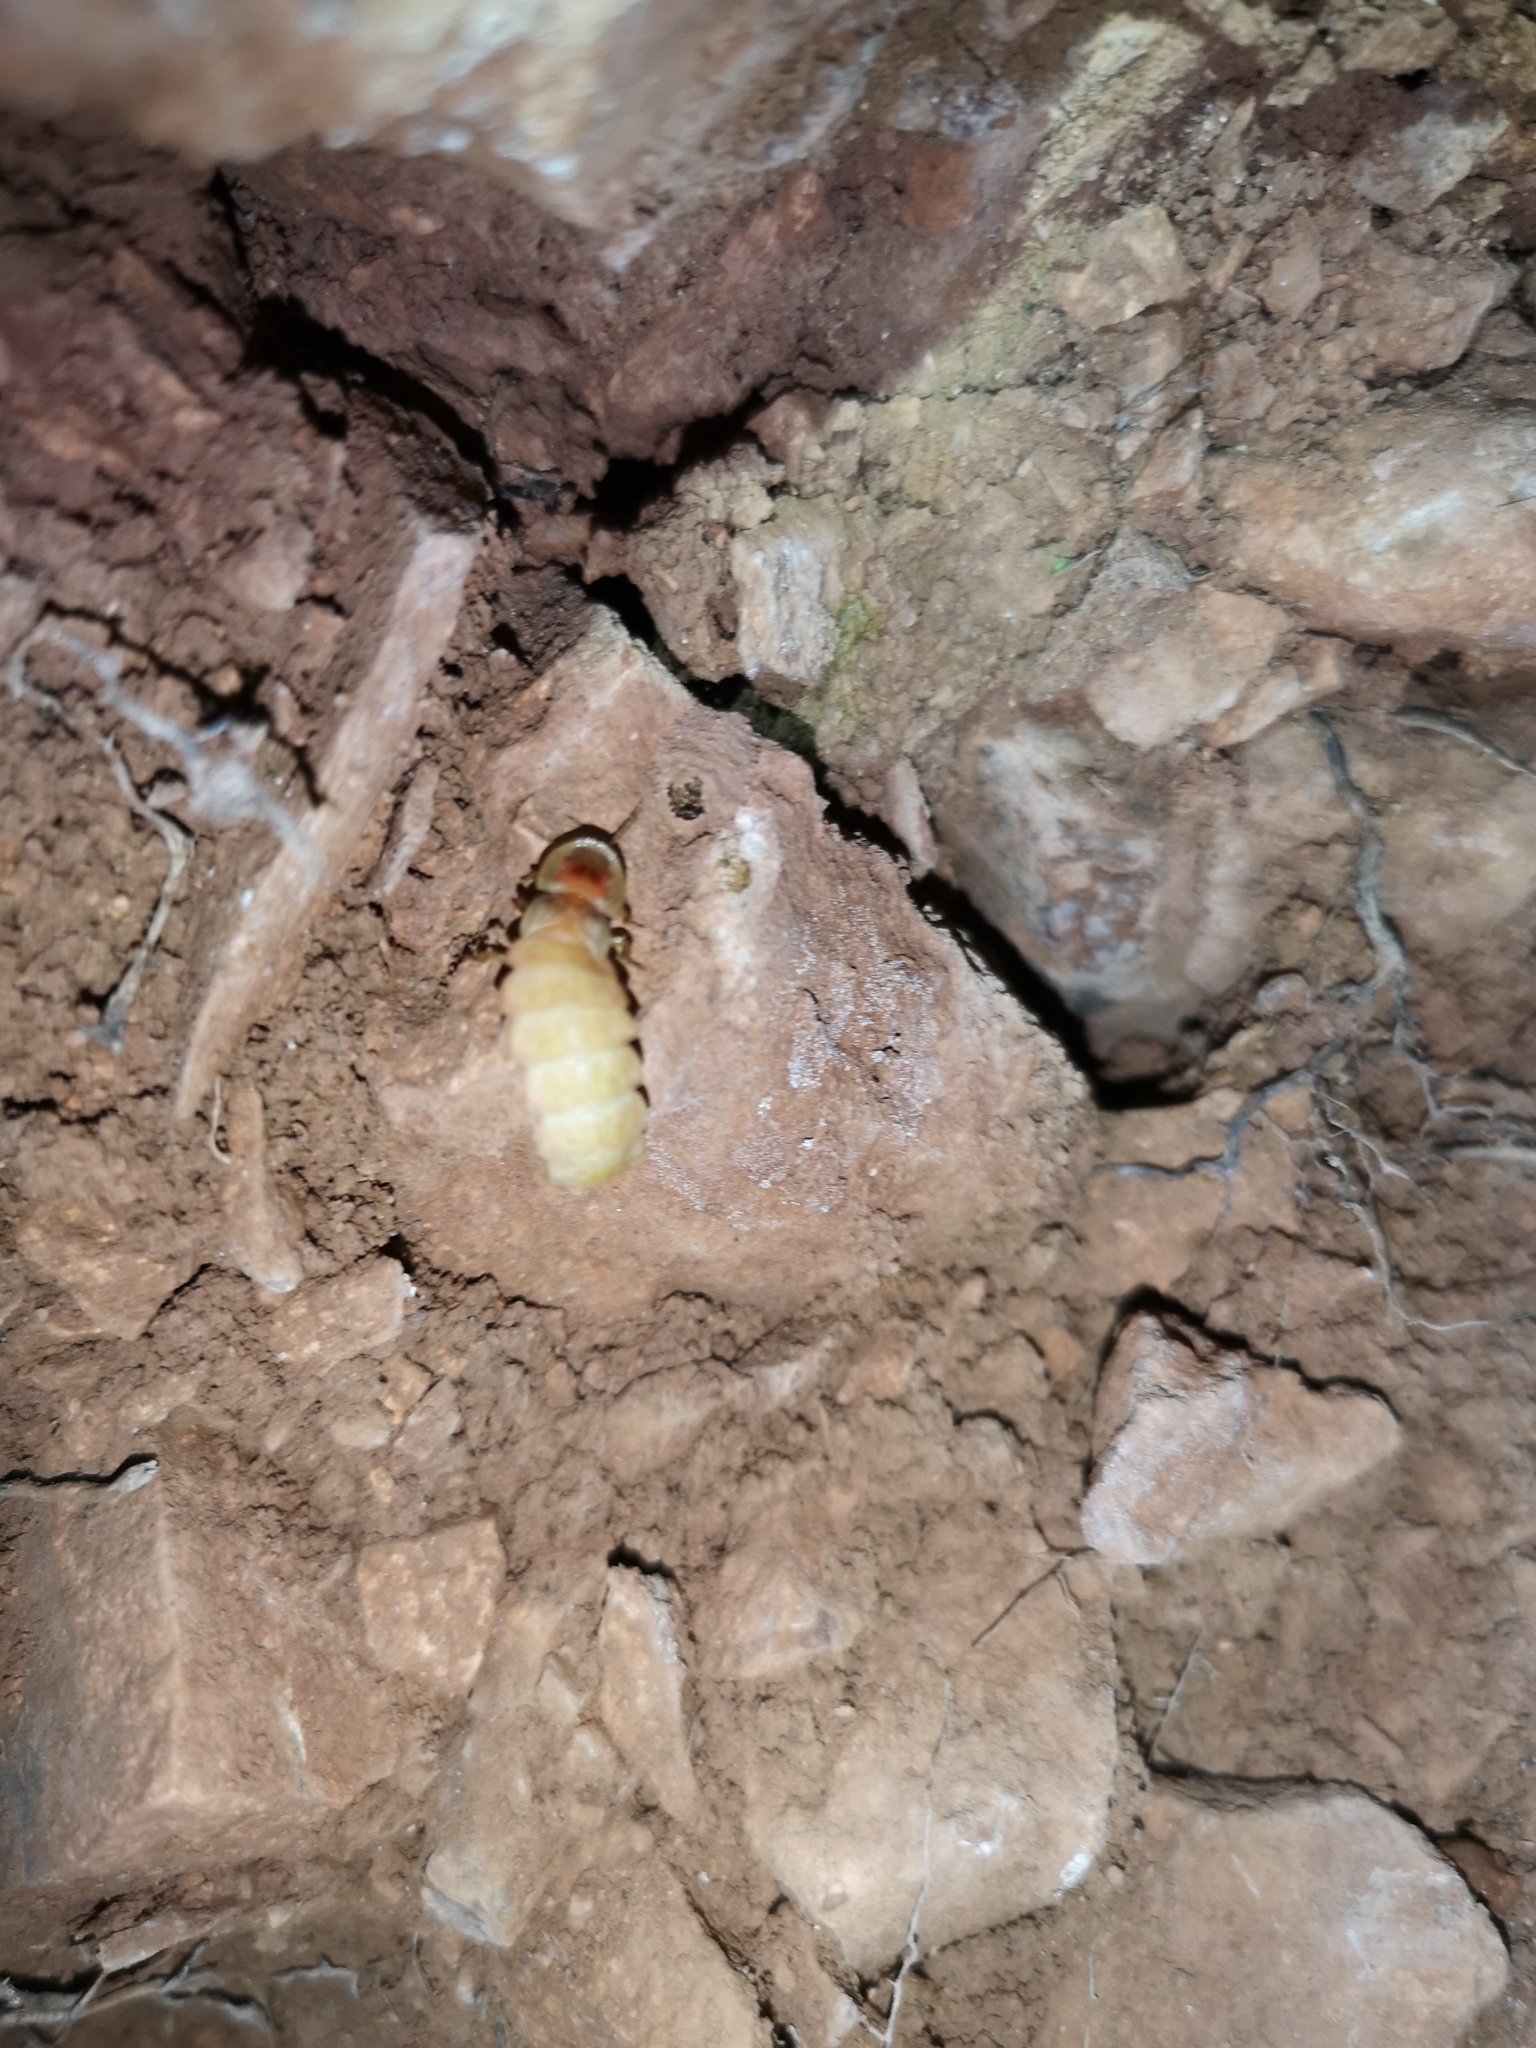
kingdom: Animalia
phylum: Arthropoda
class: Insecta
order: Coleoptera
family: Lampyridae
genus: Lampyris
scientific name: Lampyris germariensis
